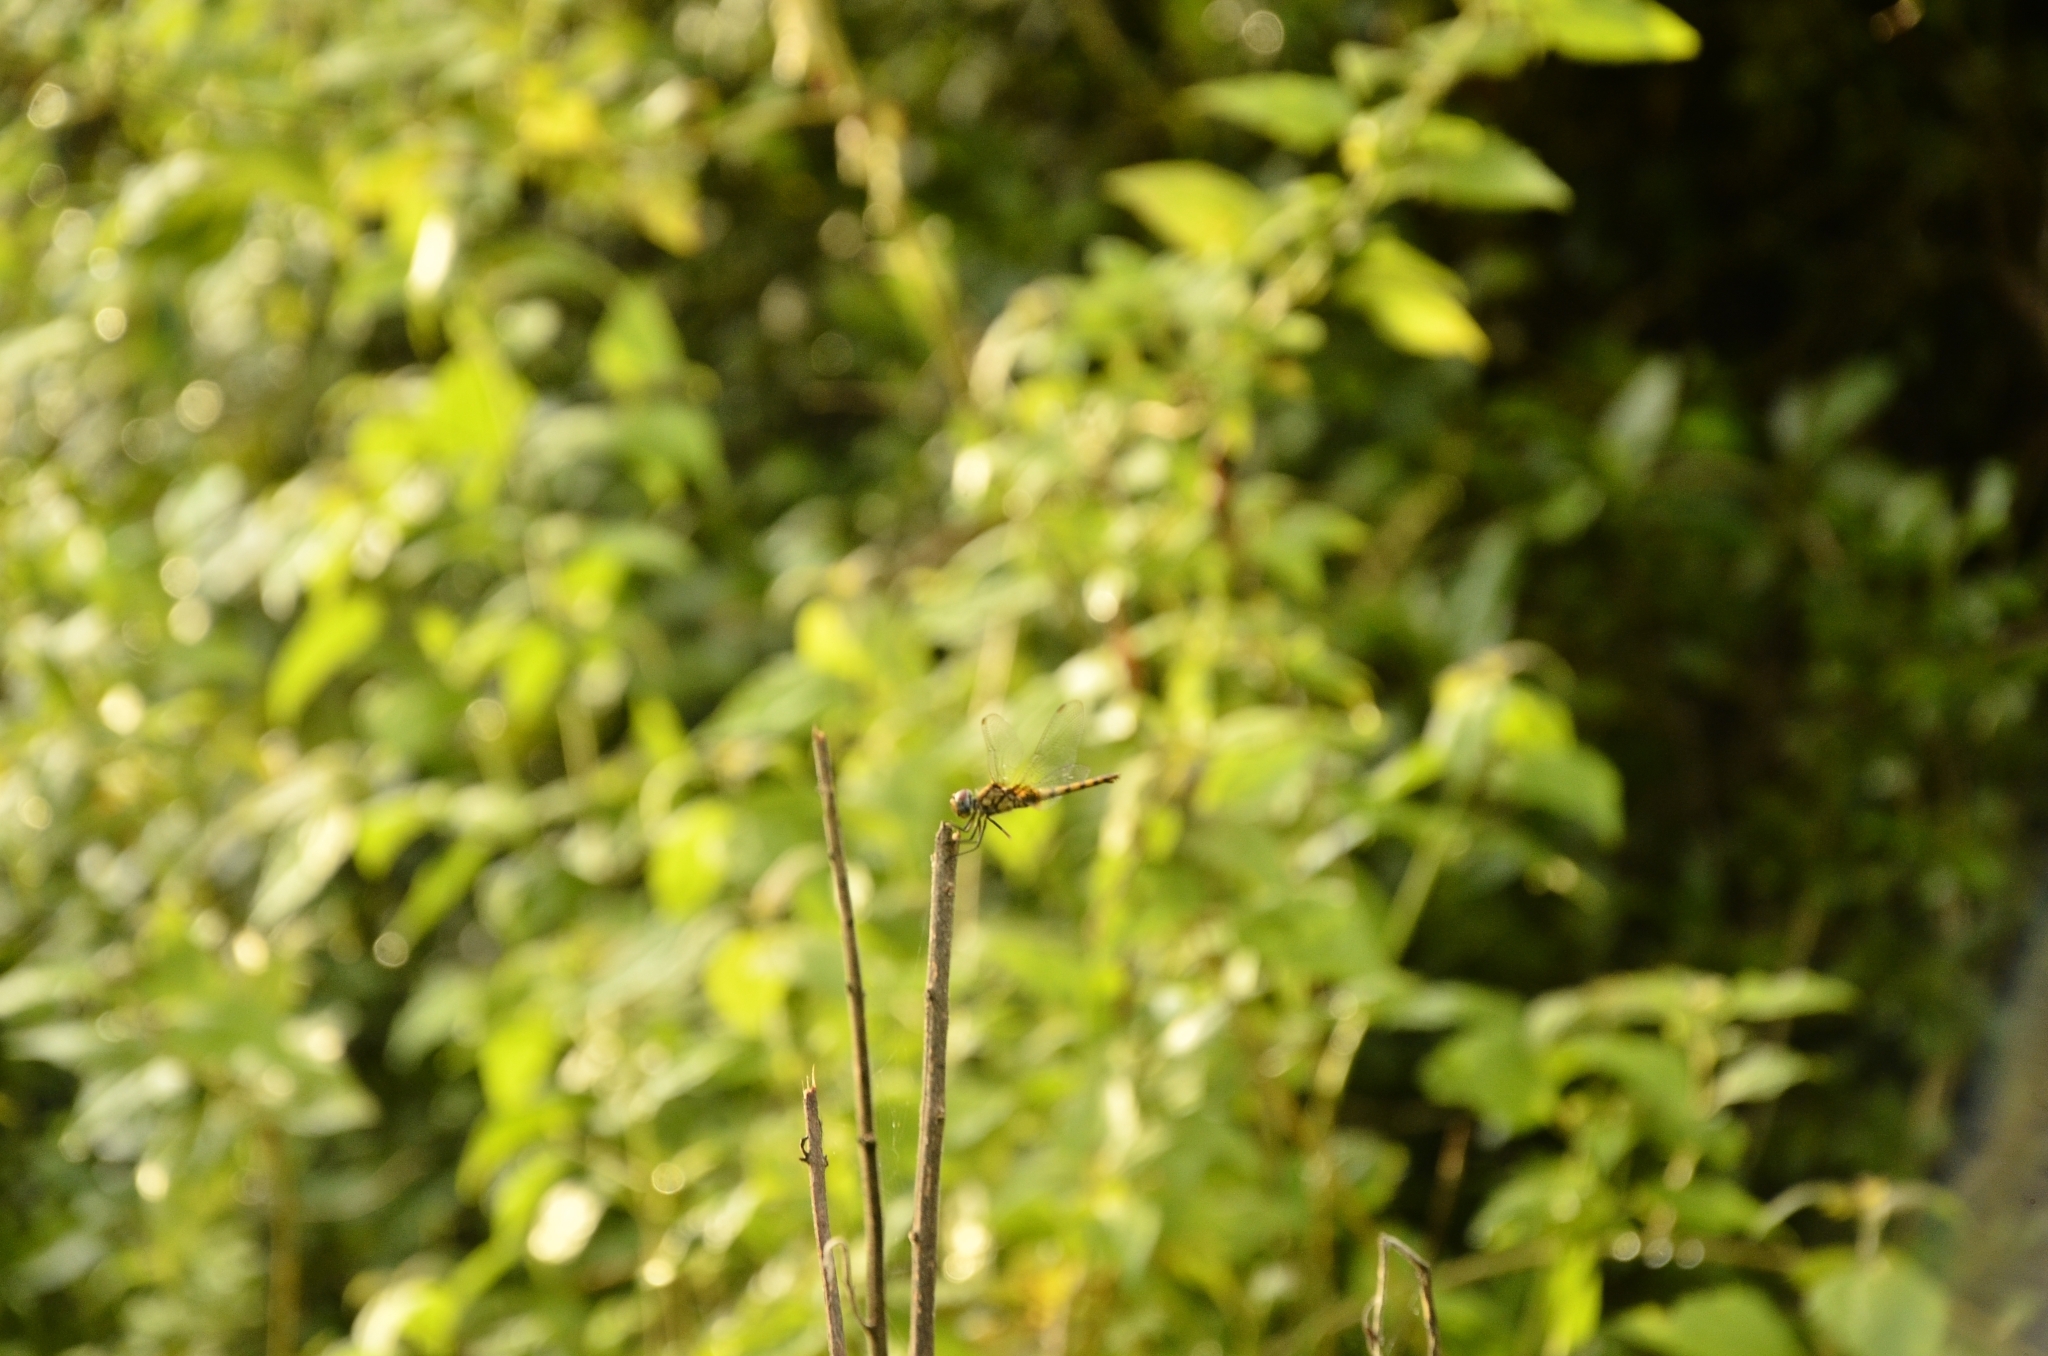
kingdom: Animalia
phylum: Arthropoda
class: Insecta
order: Odonata
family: Libellulidae
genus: Urothemis
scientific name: Urothemis signata
